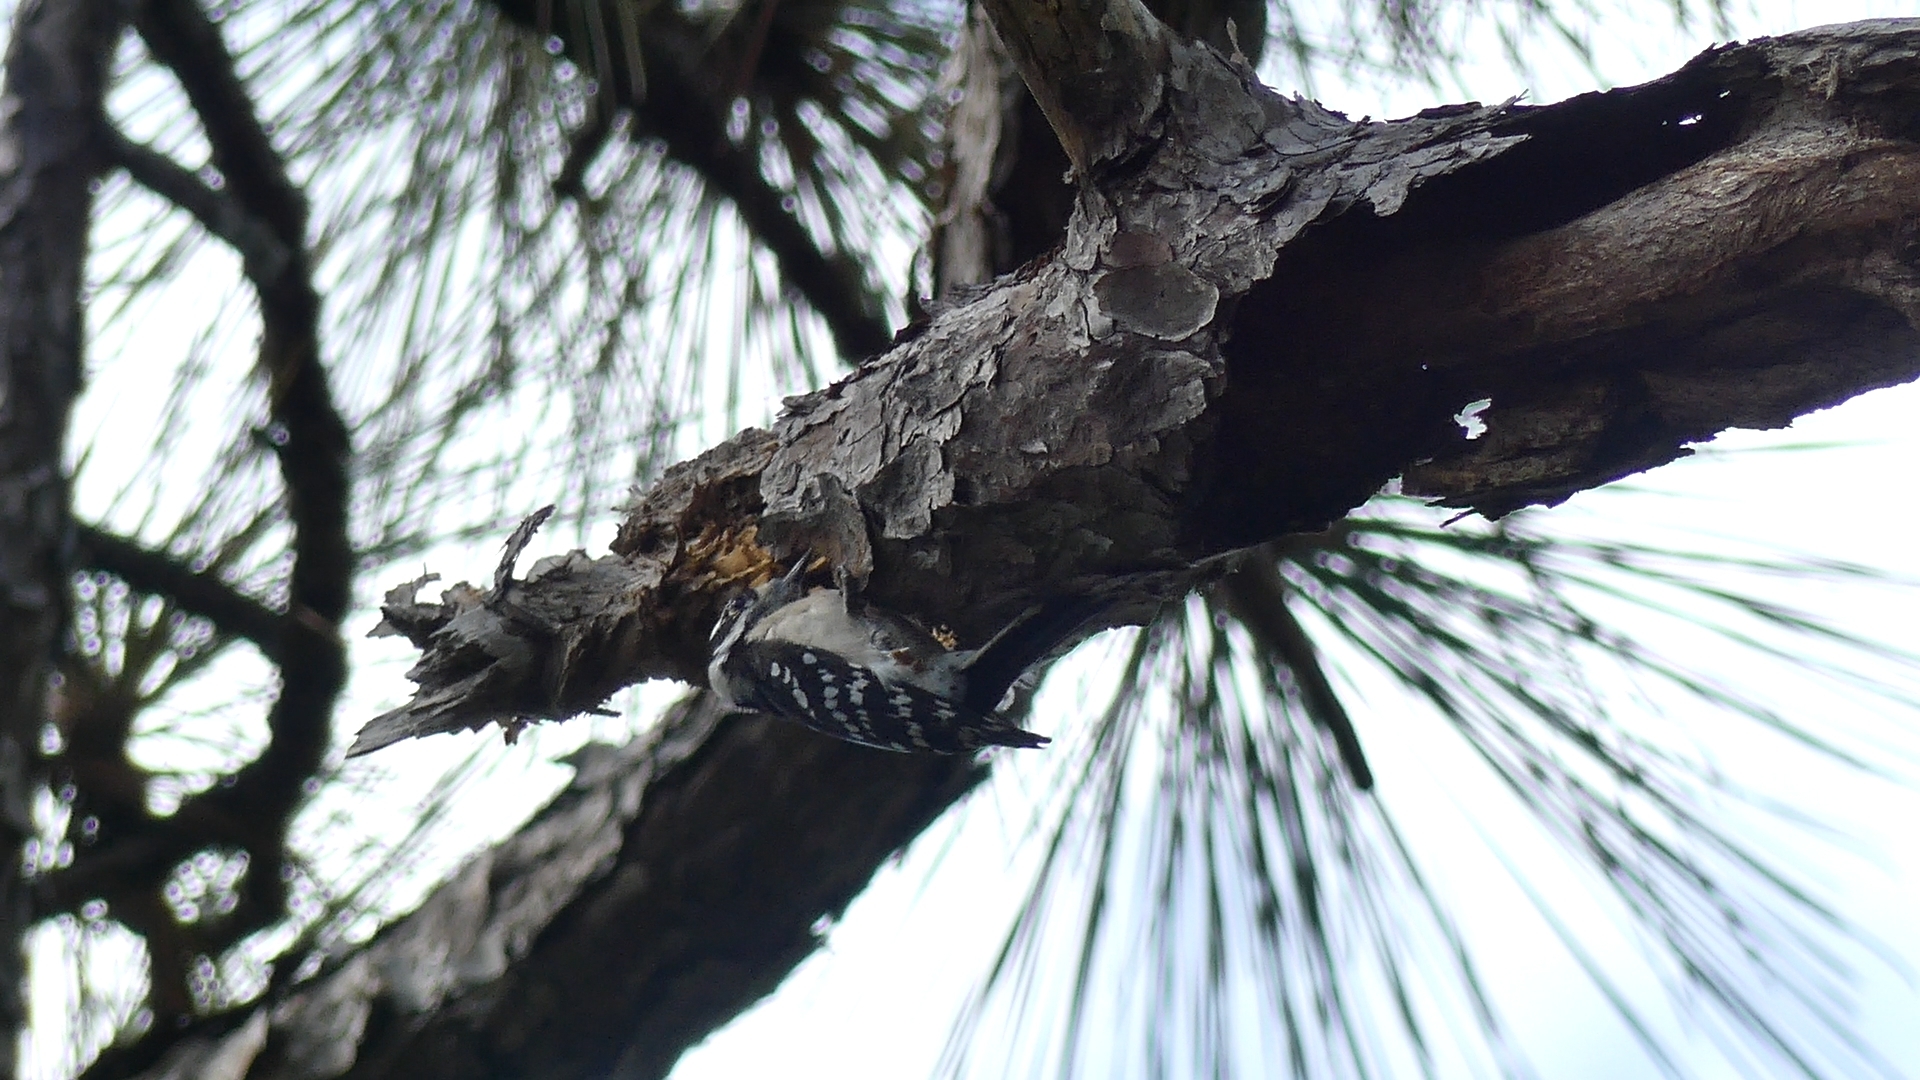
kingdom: Animalia
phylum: Chordata
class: Aves
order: Piciformes
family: Picidae
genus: Dryobates
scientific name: Dryobates pubescens
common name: Downy woodpecker
